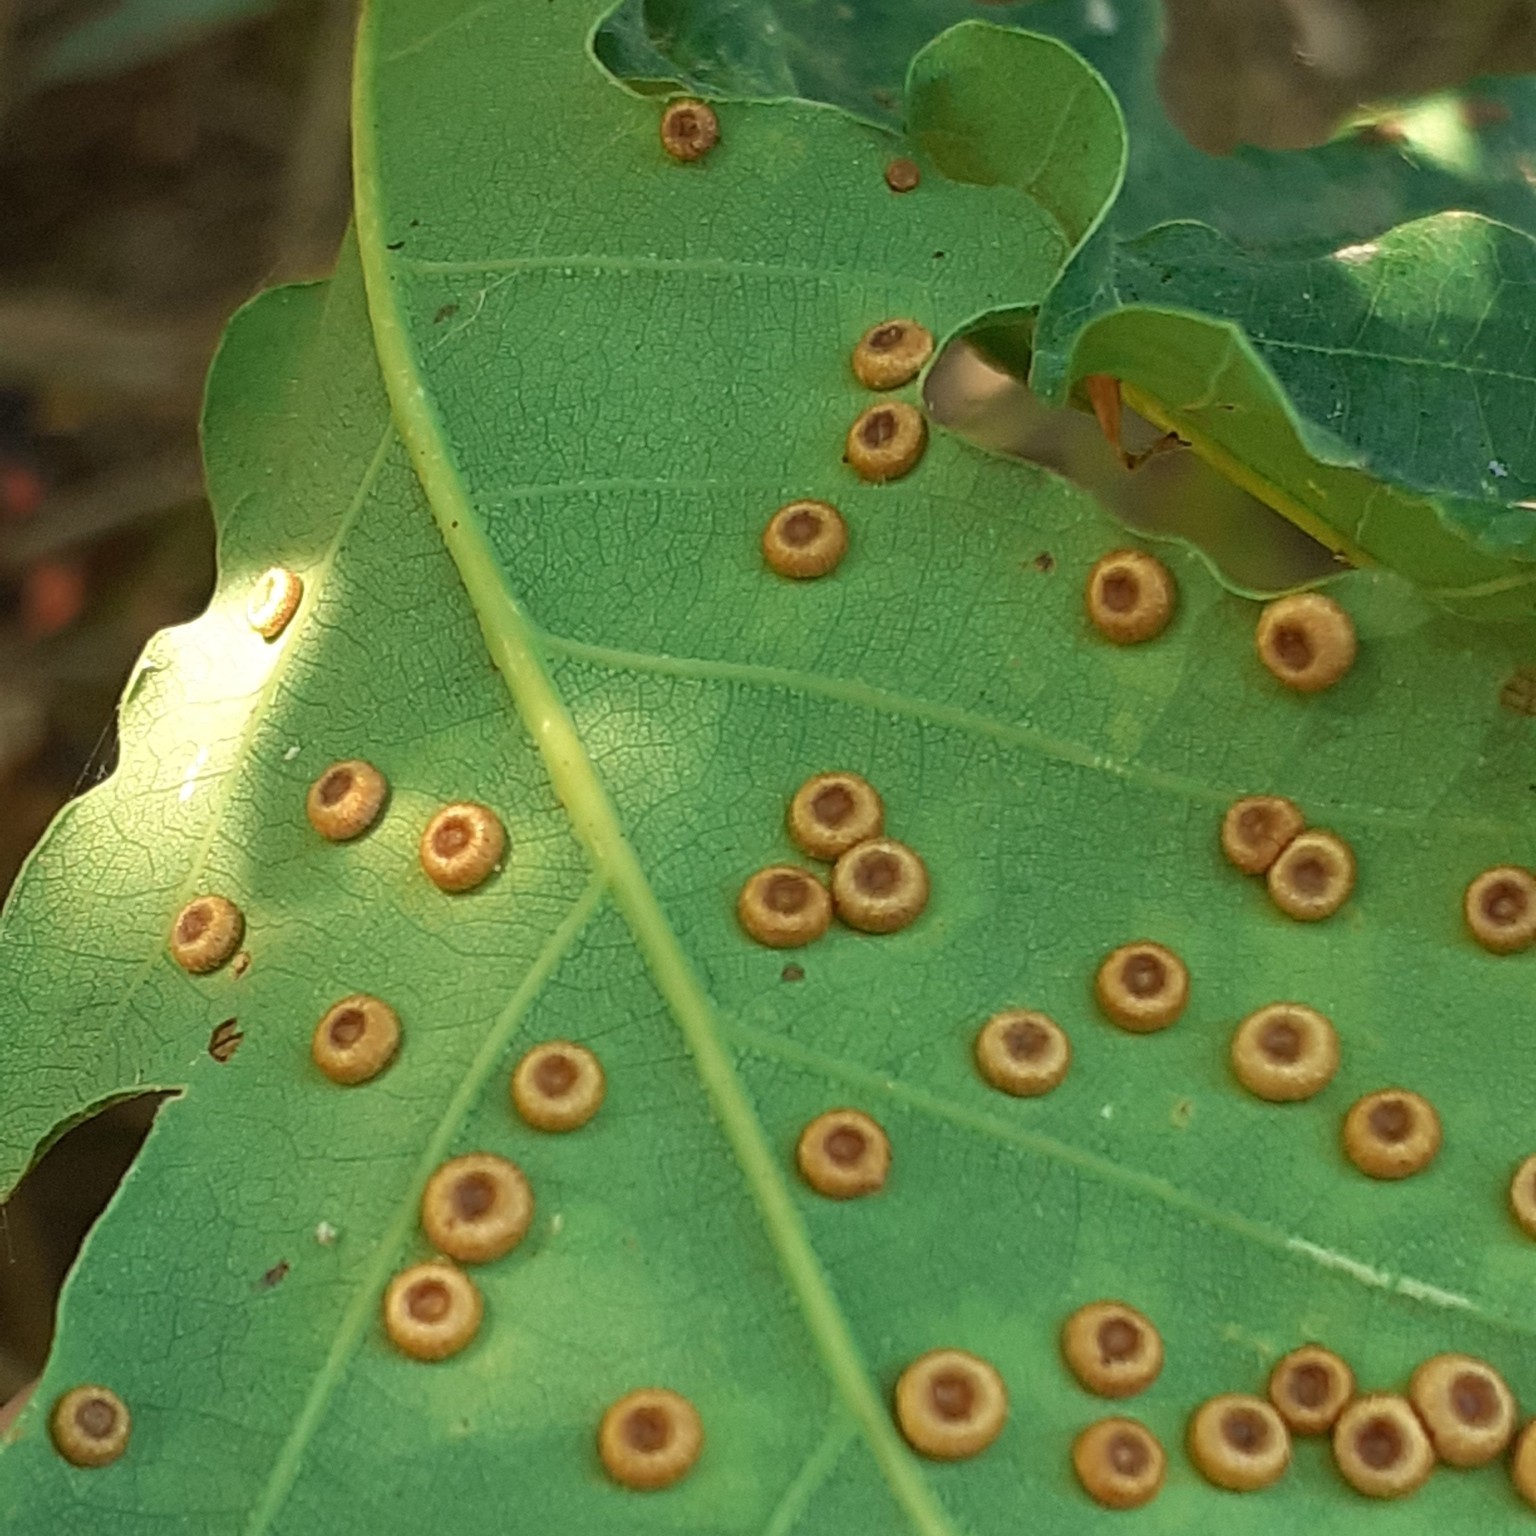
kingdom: Animalia
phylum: Arthropoda
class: Insecta
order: Hymenoptera
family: Cynipidae
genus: Neuroterus
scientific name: Neuroterus numismalis
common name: Silk-button spangle gall
